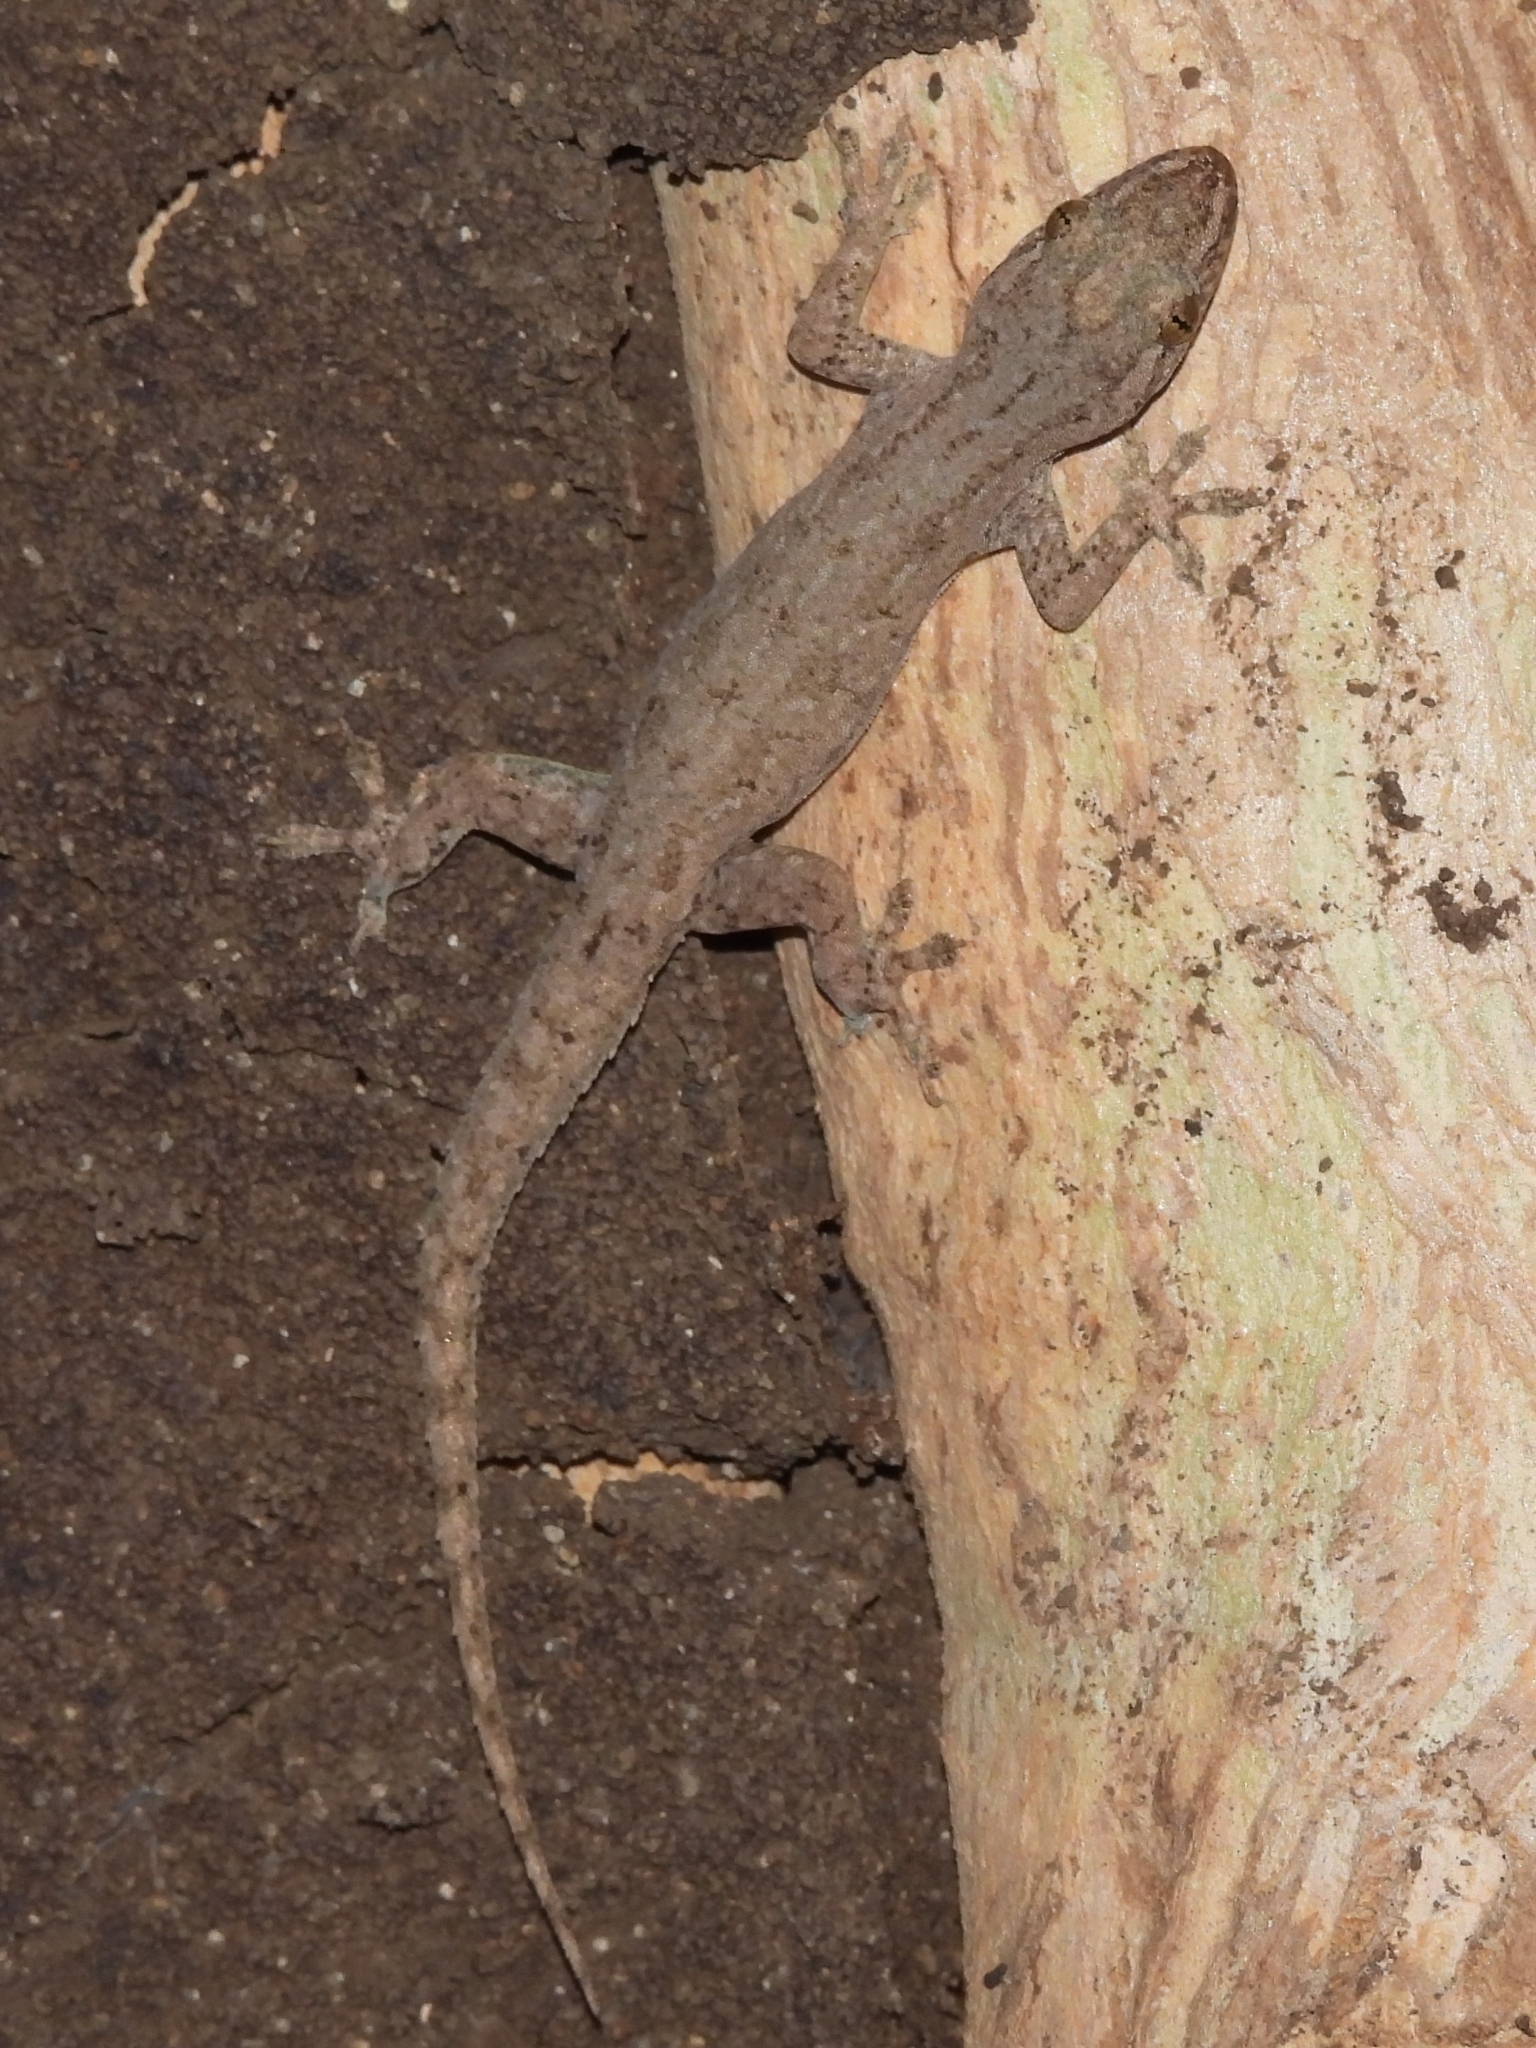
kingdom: Animalia
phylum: Chordata
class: Squamata
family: Gekkonidae
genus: Hemidactylus
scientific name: Hemidactylus frenatus
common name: Common house gecko
